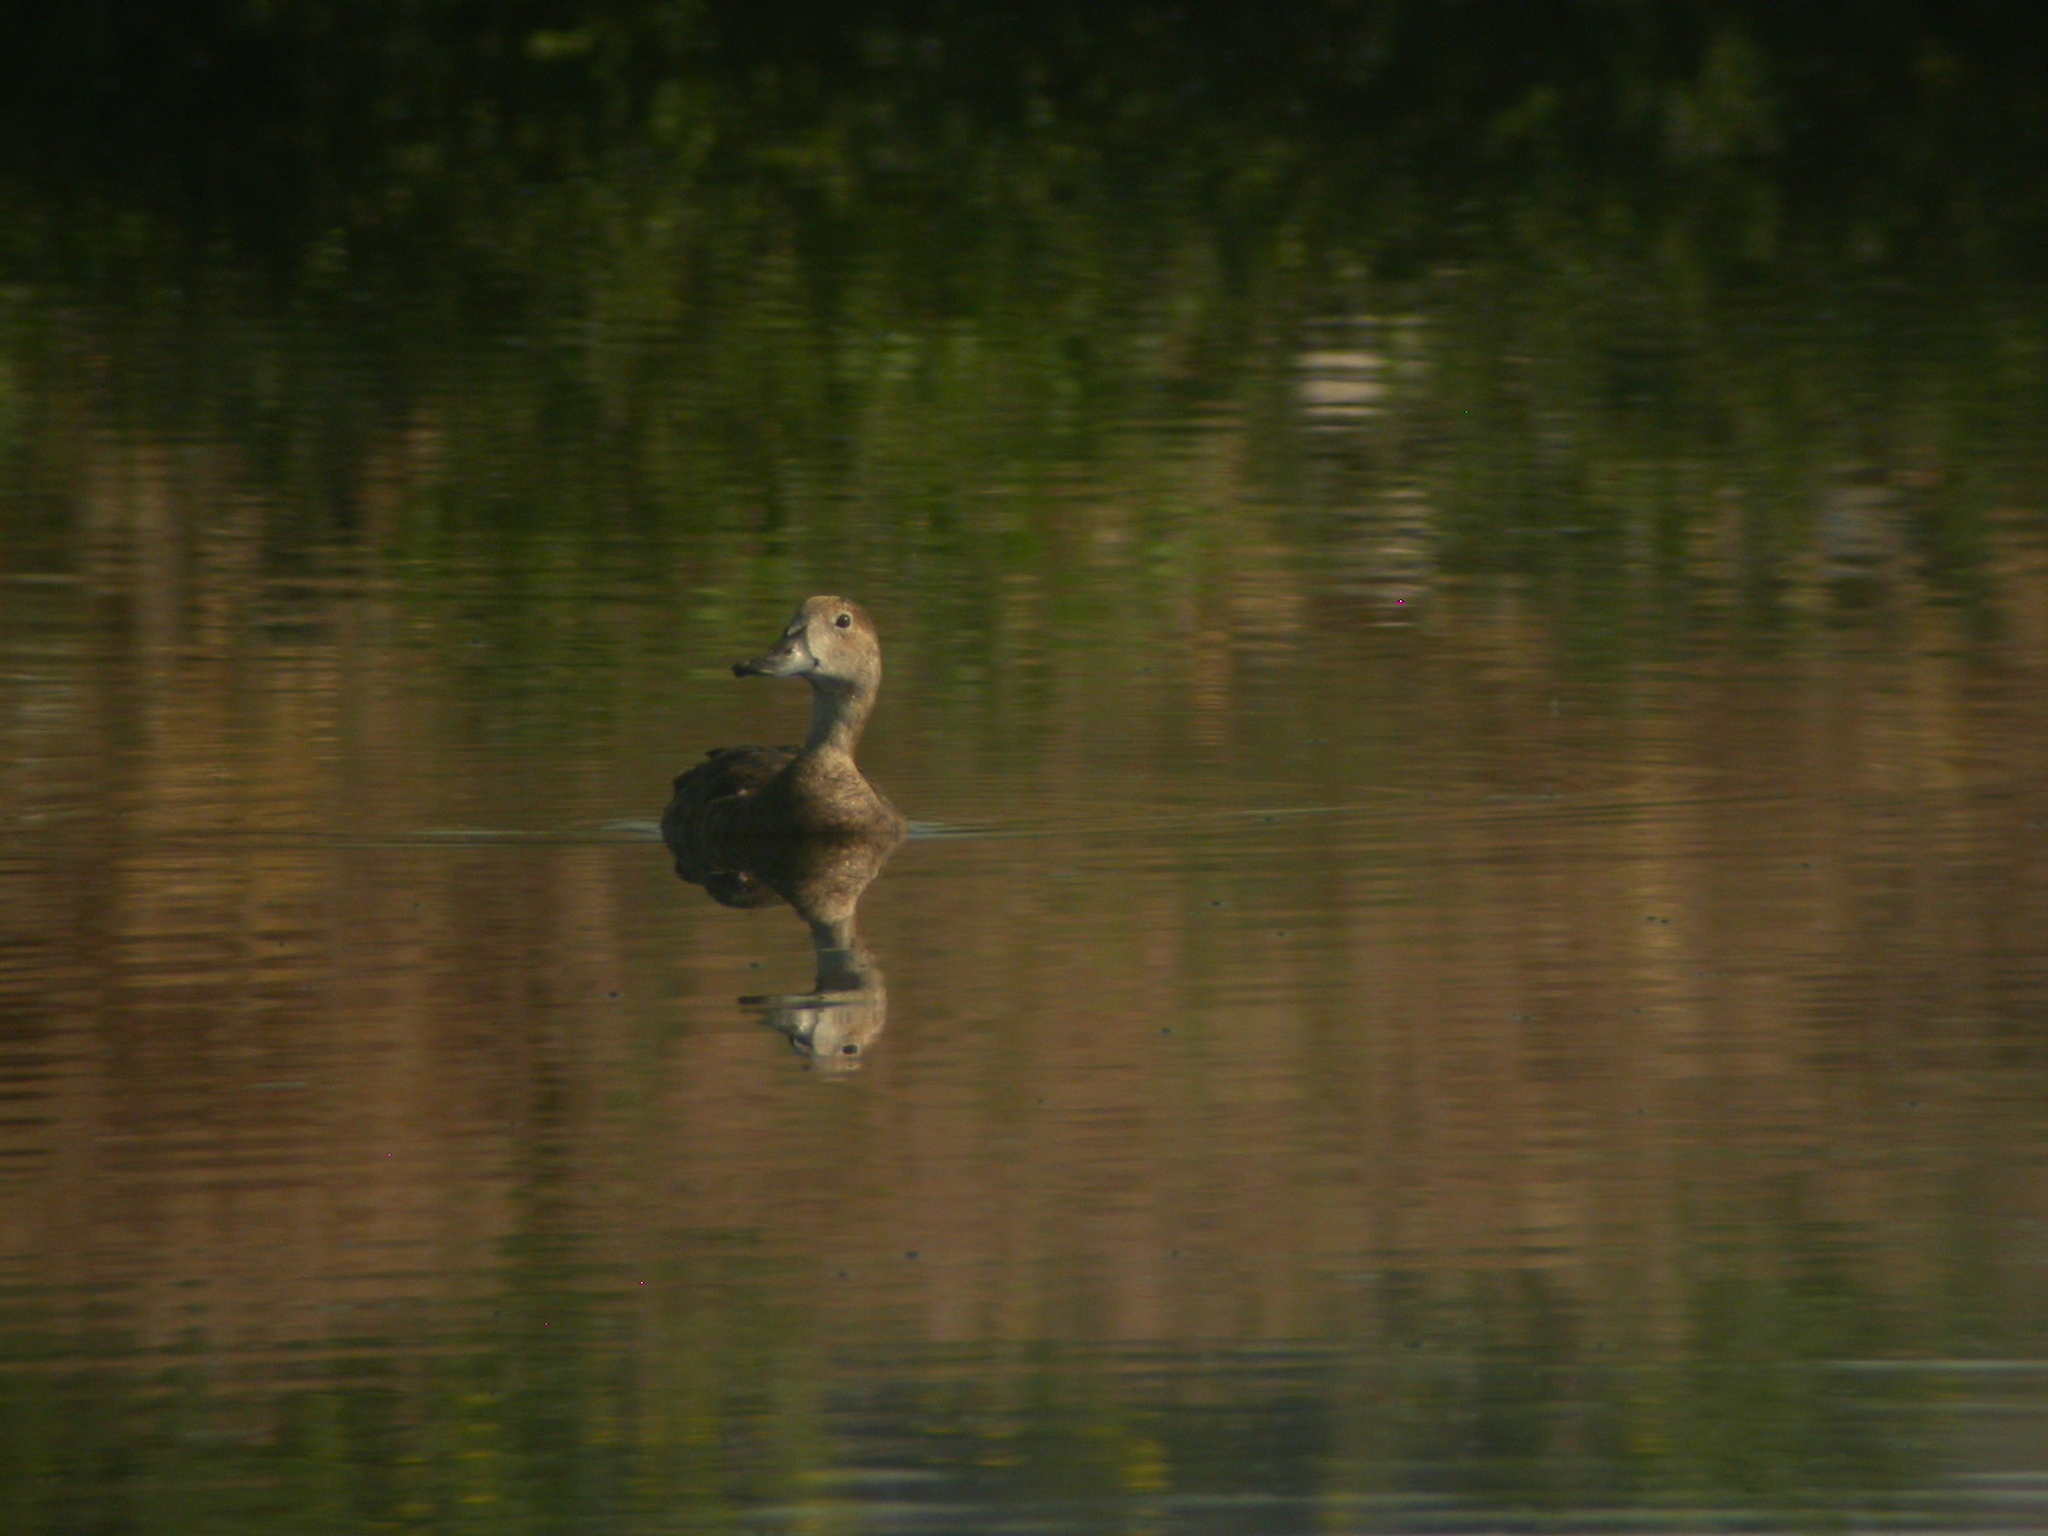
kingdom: Animalia
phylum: Chordata
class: Aves
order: Anseriformes
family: Anatidae
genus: Aythya
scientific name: Aythya americana
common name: Redhead
